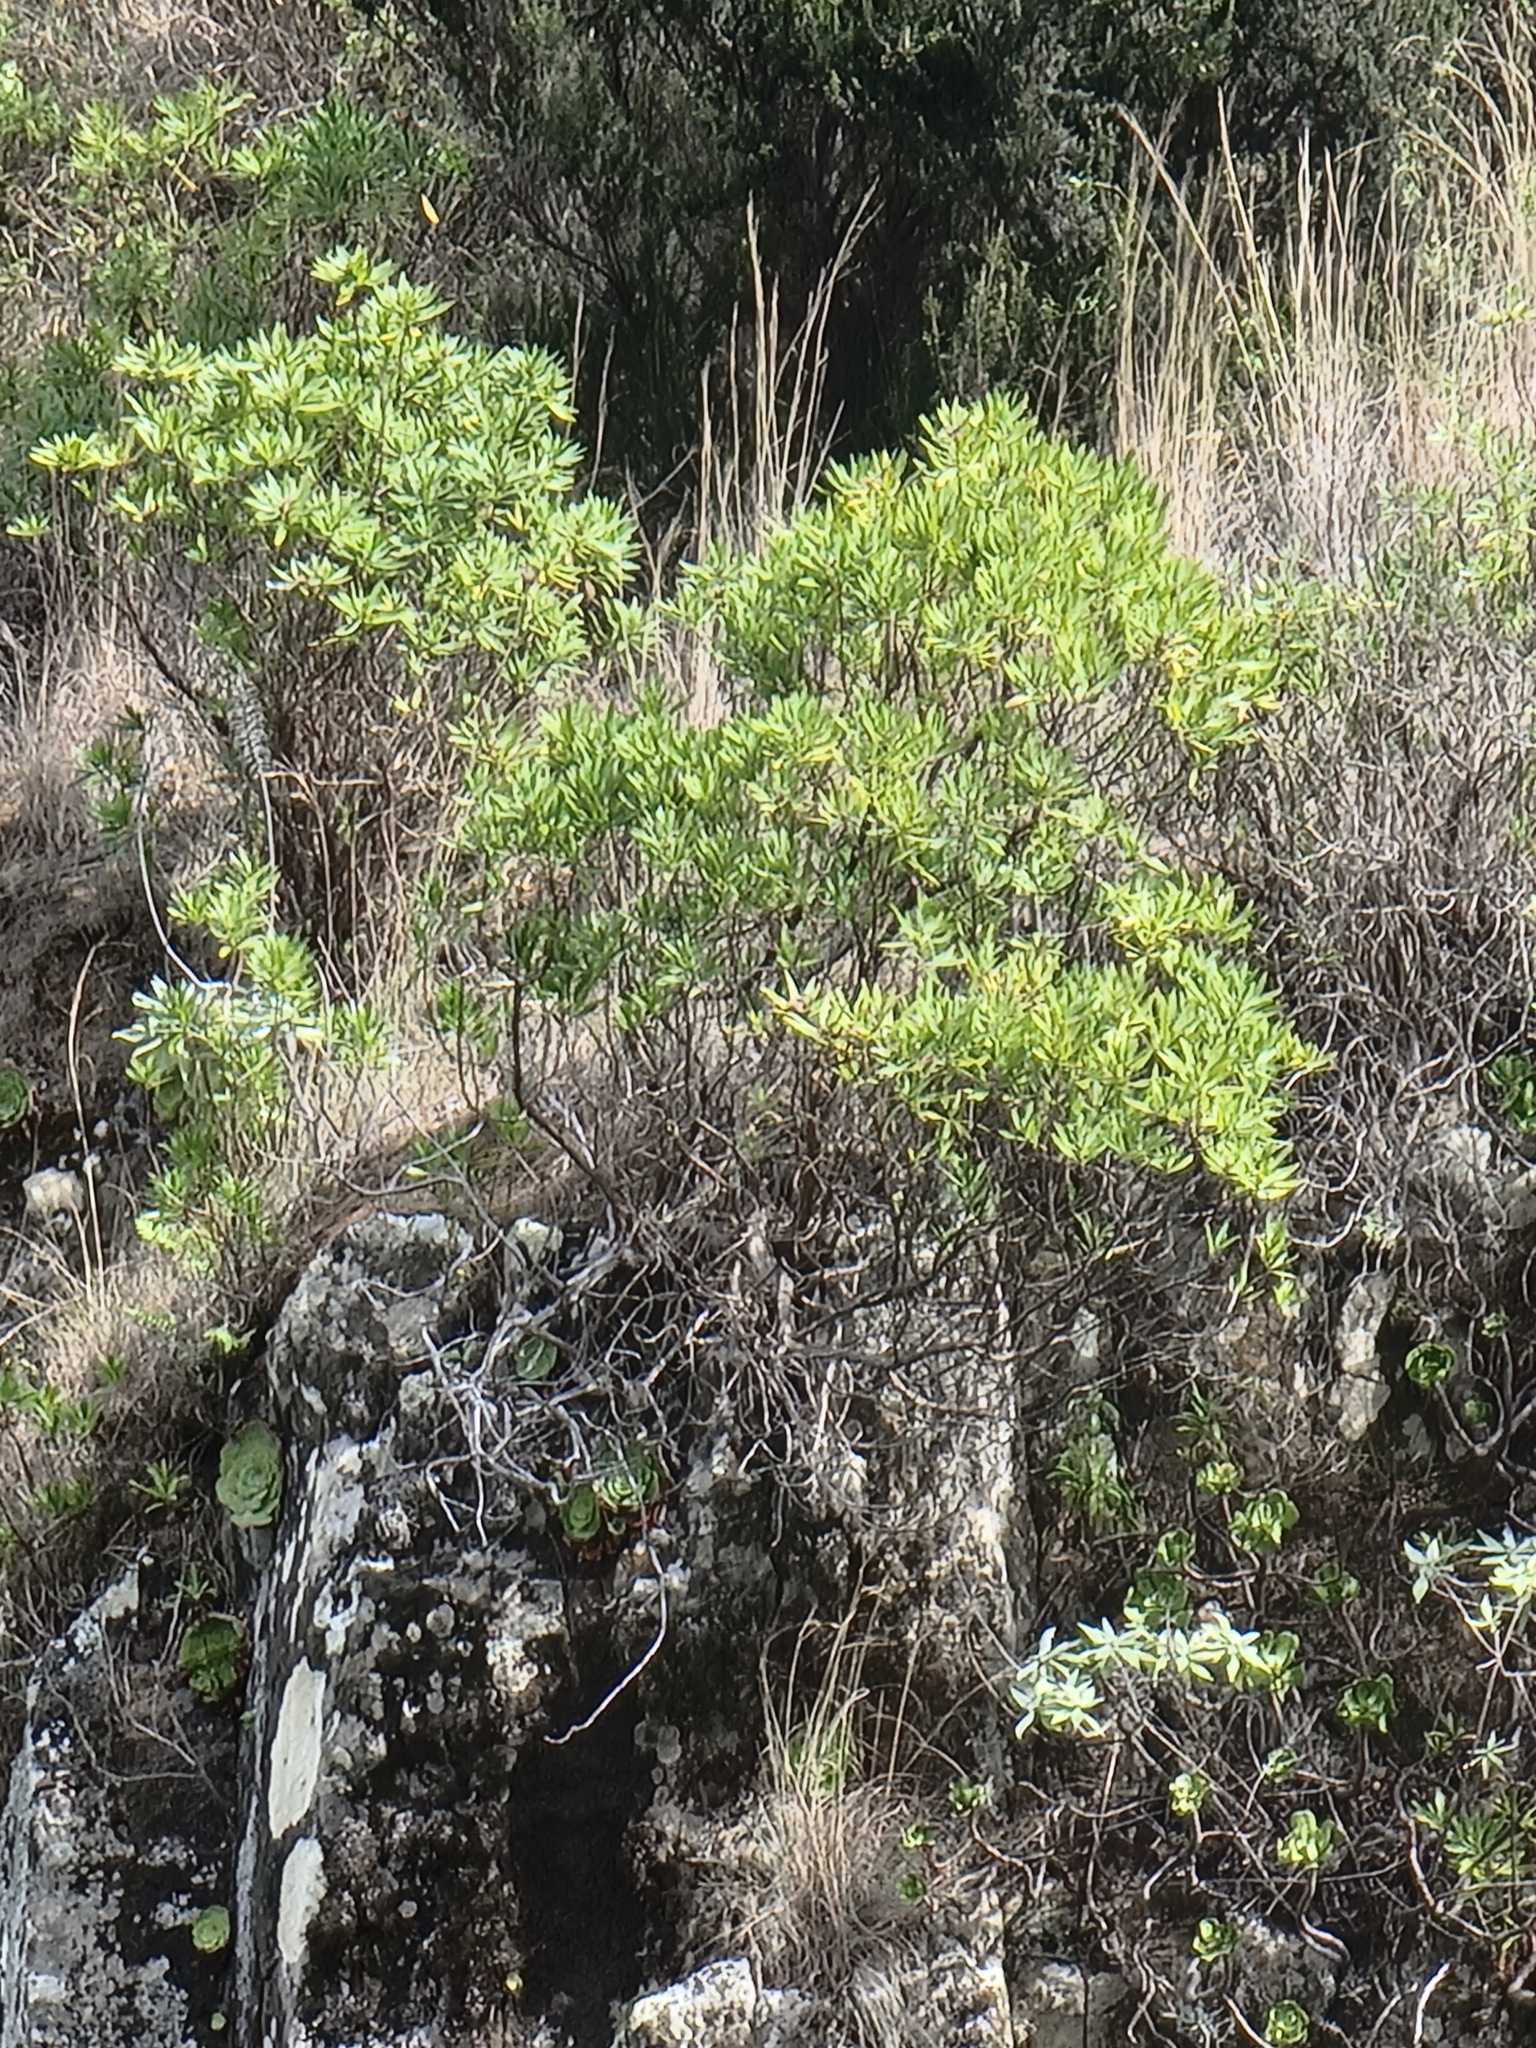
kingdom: Plantae
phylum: Tracheophyta
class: Magnoliopsida
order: Lamiales
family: Plantaginaceae
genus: Globularia
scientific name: Globularia salicina
